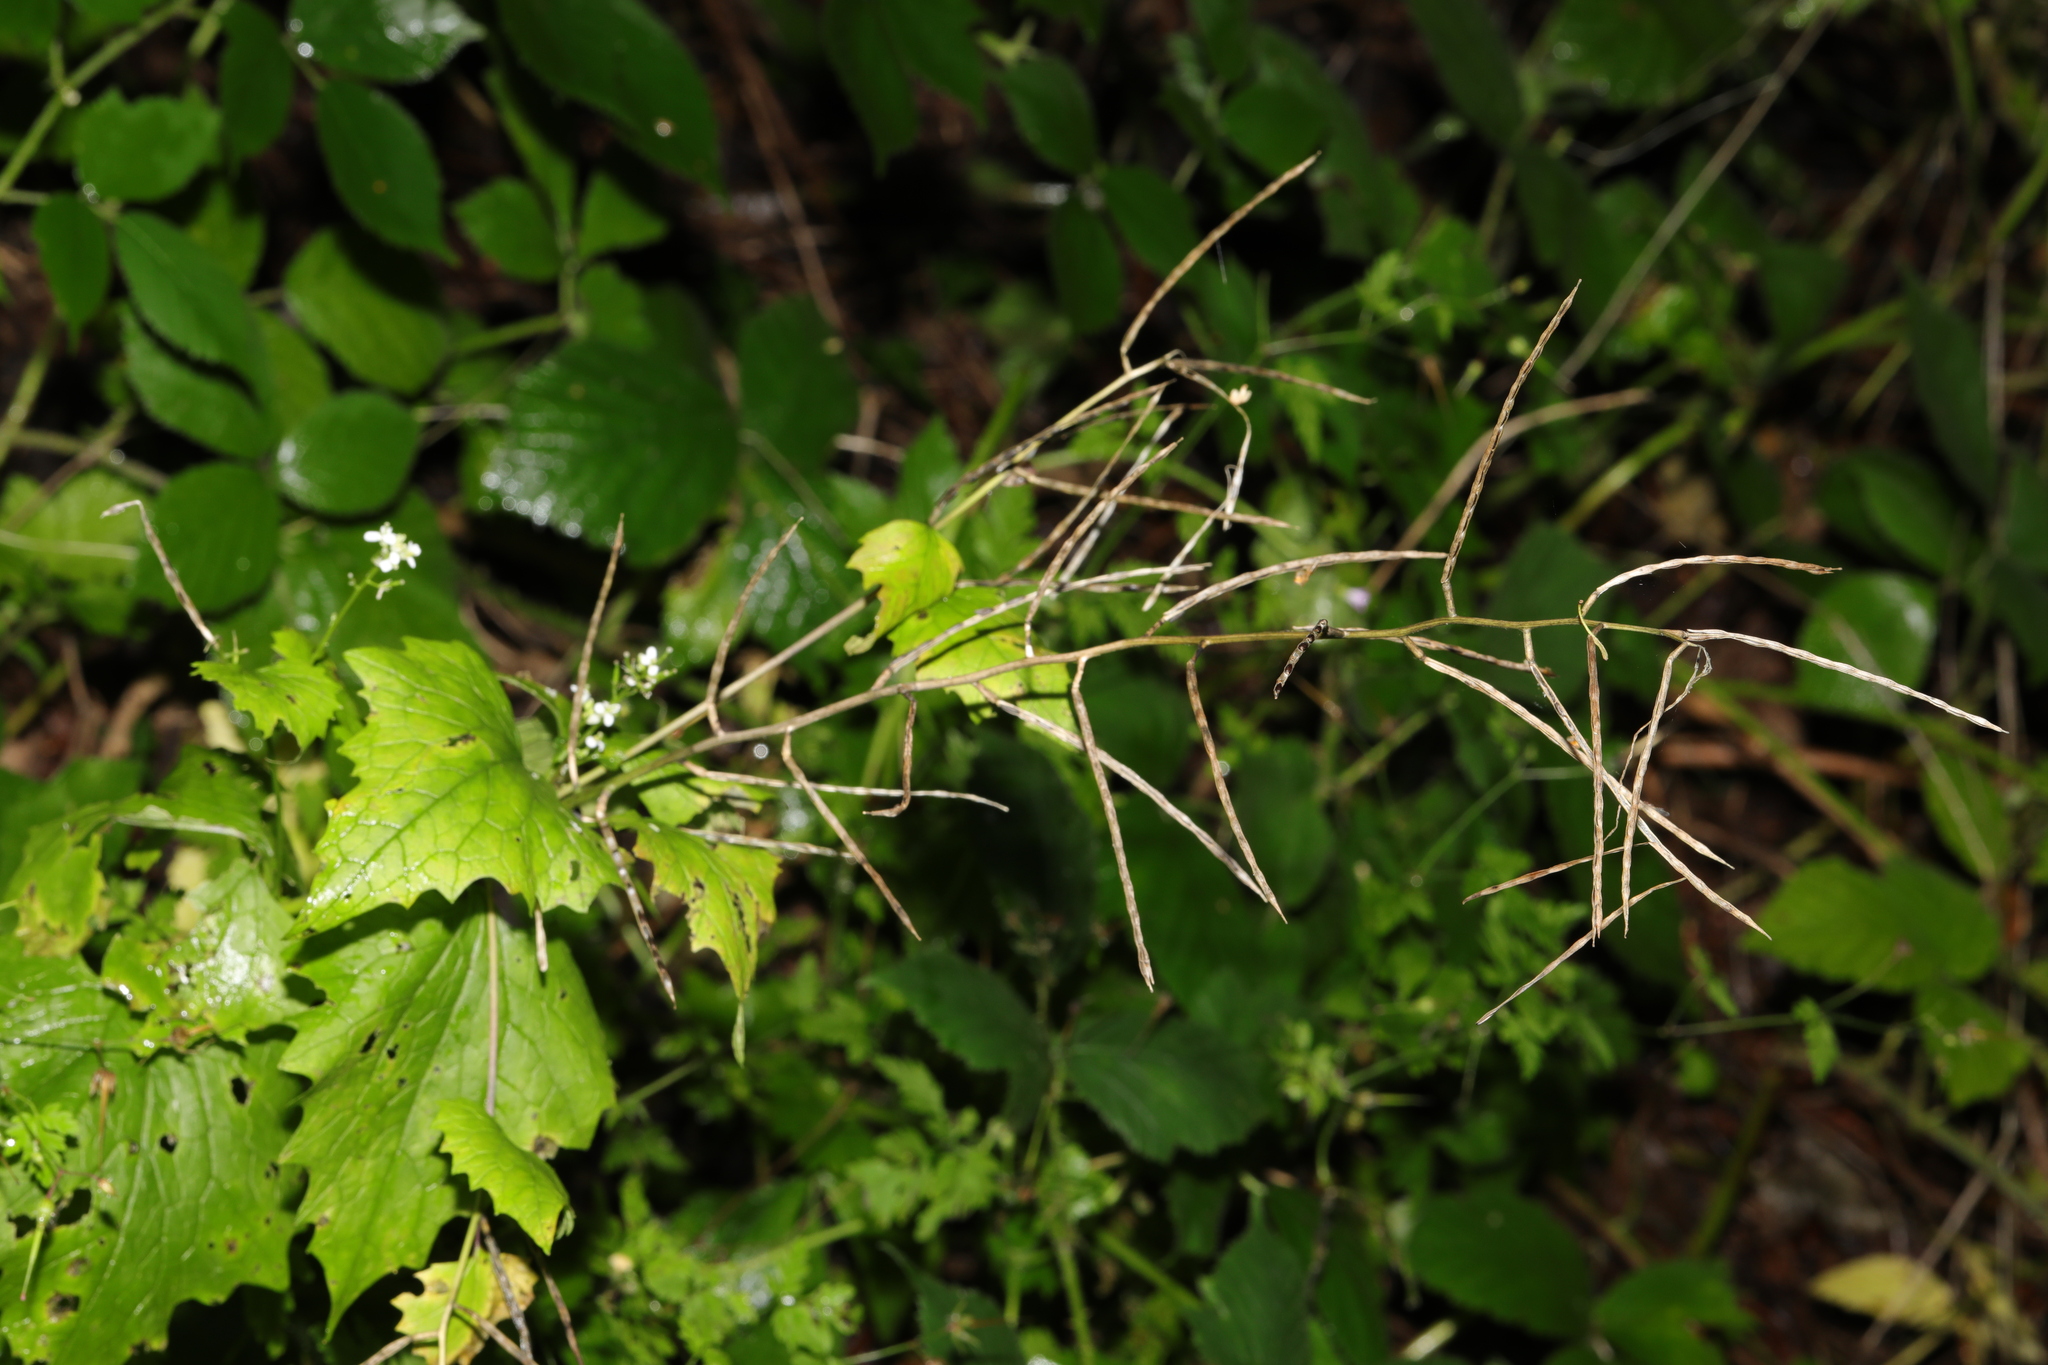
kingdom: Plantae
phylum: Tracheophyta
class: Magnoliopsida
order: Brassicales
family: Brassicaceae
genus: Alliaria
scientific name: Alliaria petiolata
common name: Garlic mustard
